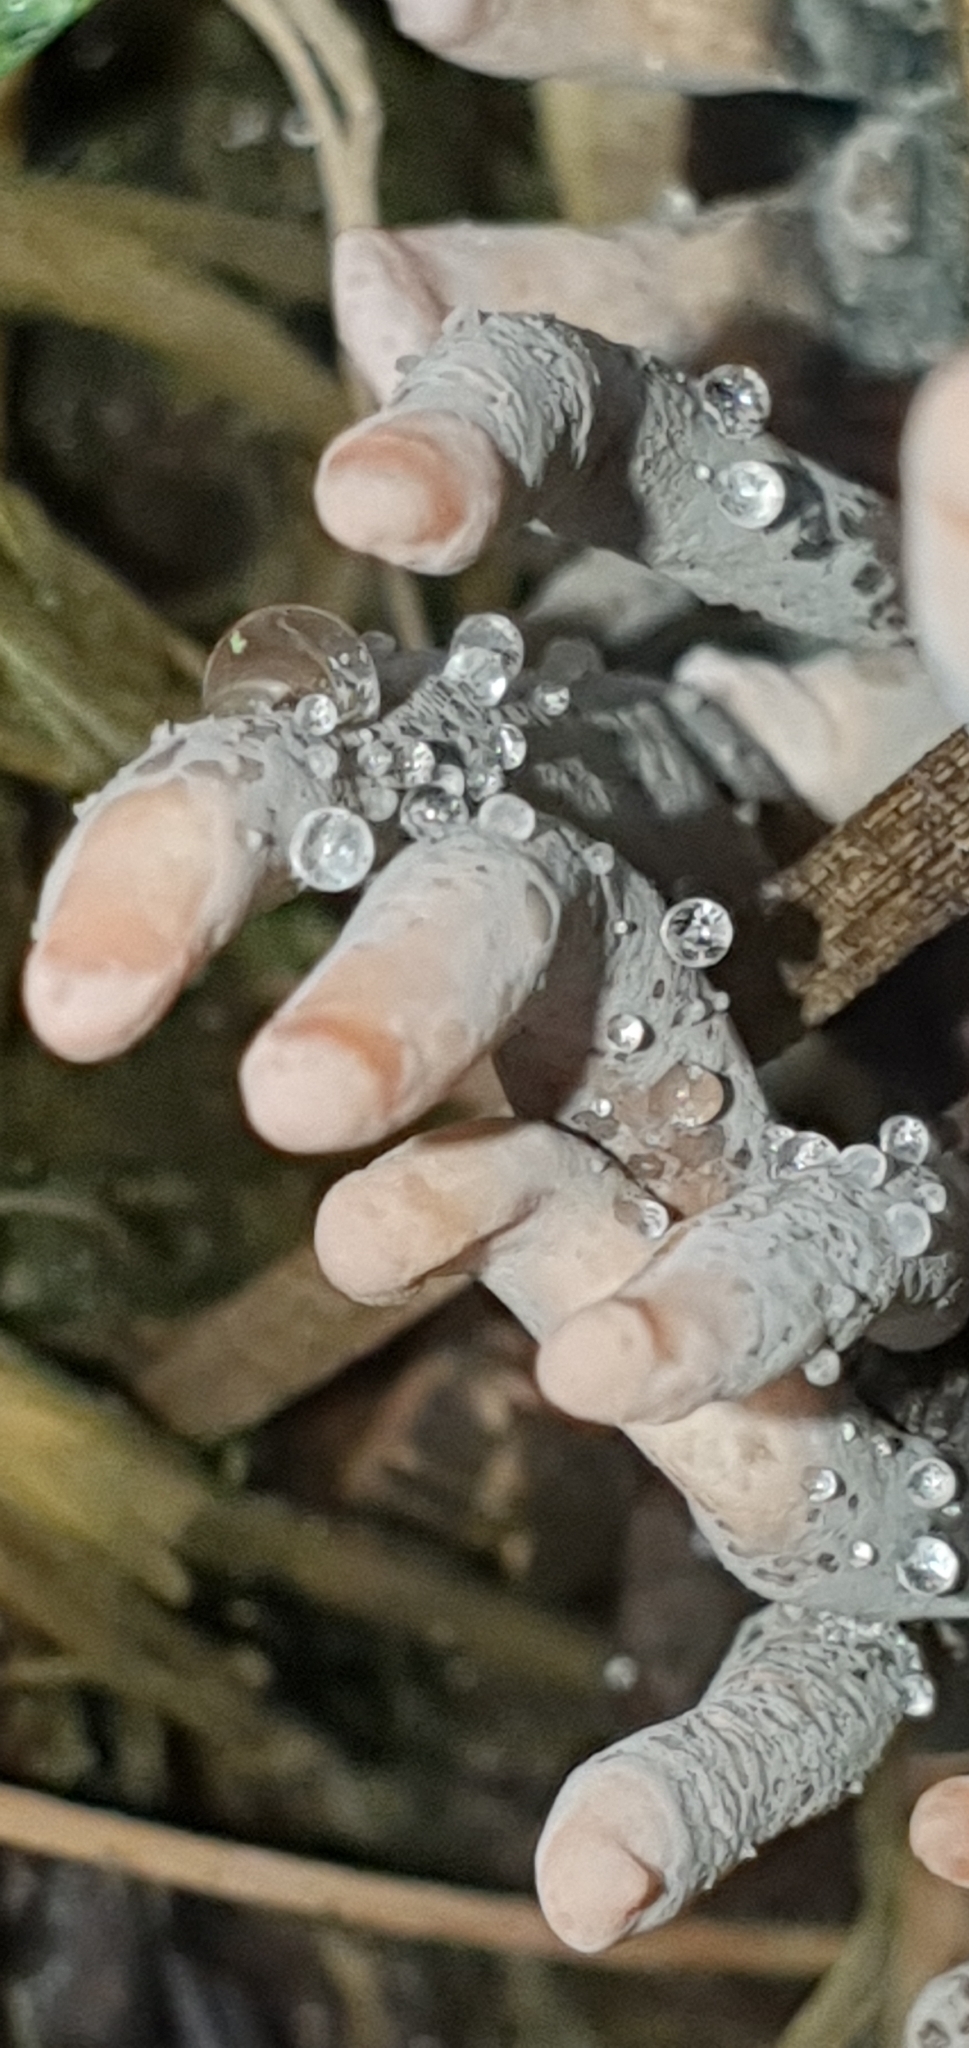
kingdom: Fungi
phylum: Ascomycota
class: Sordariomycetes
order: Xylariales
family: Xylariaceae
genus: Xylaria
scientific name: Xylaria polymorpha
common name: Dead man's fingers
